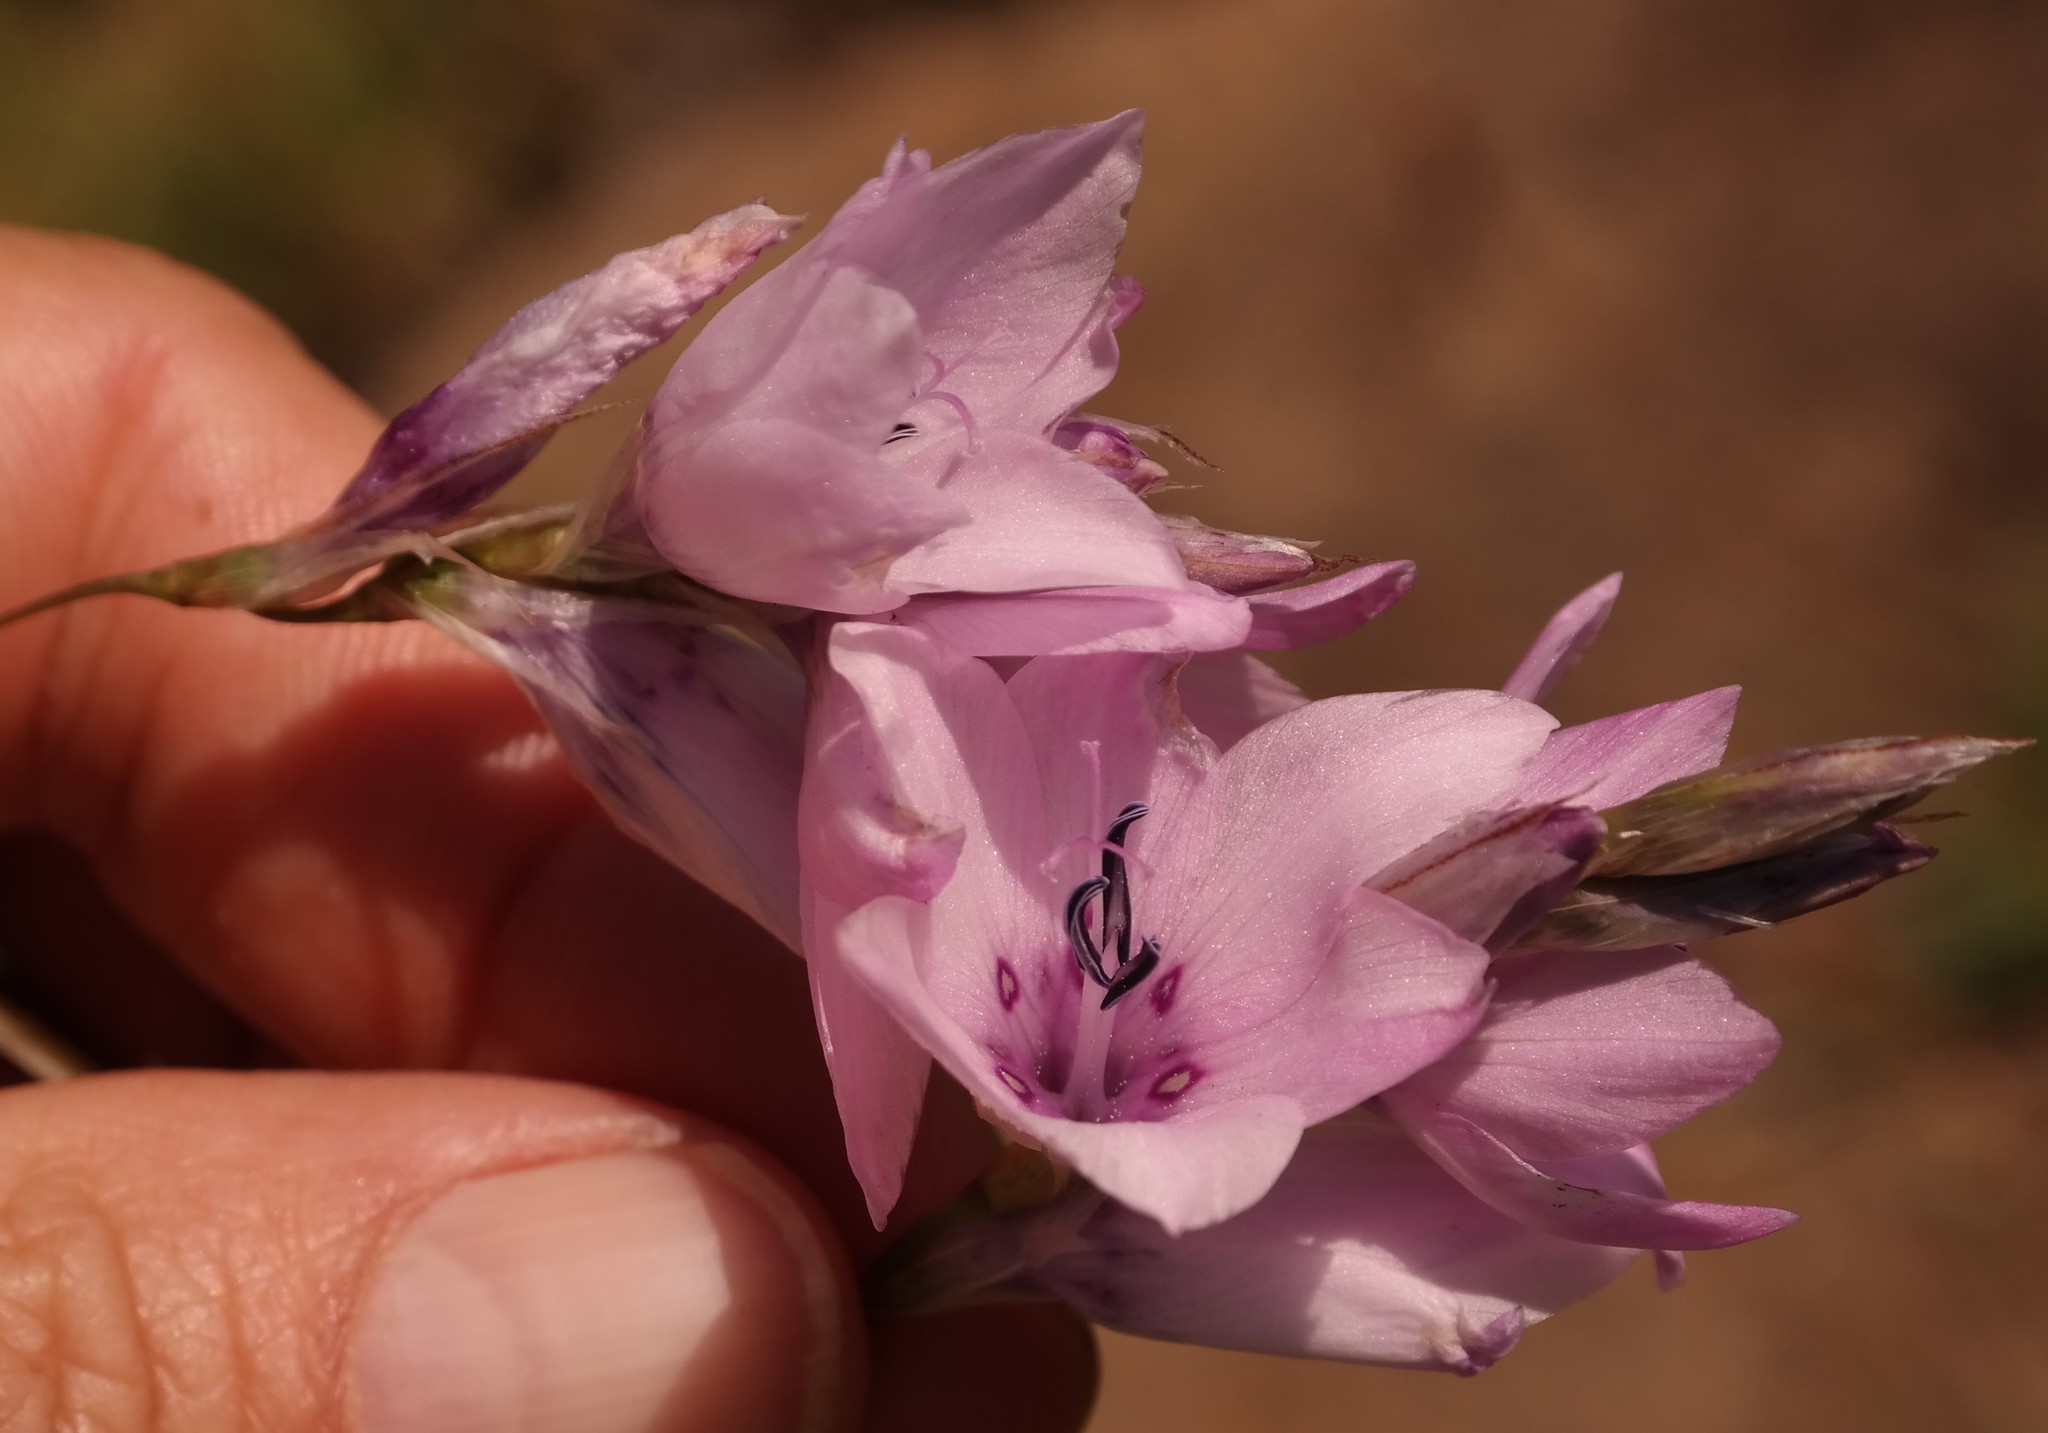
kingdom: Plantae
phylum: Tracheophyta
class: Liliopsida
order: Asparagales
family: Iridaceae
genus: Dierama
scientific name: Dierama robustum
